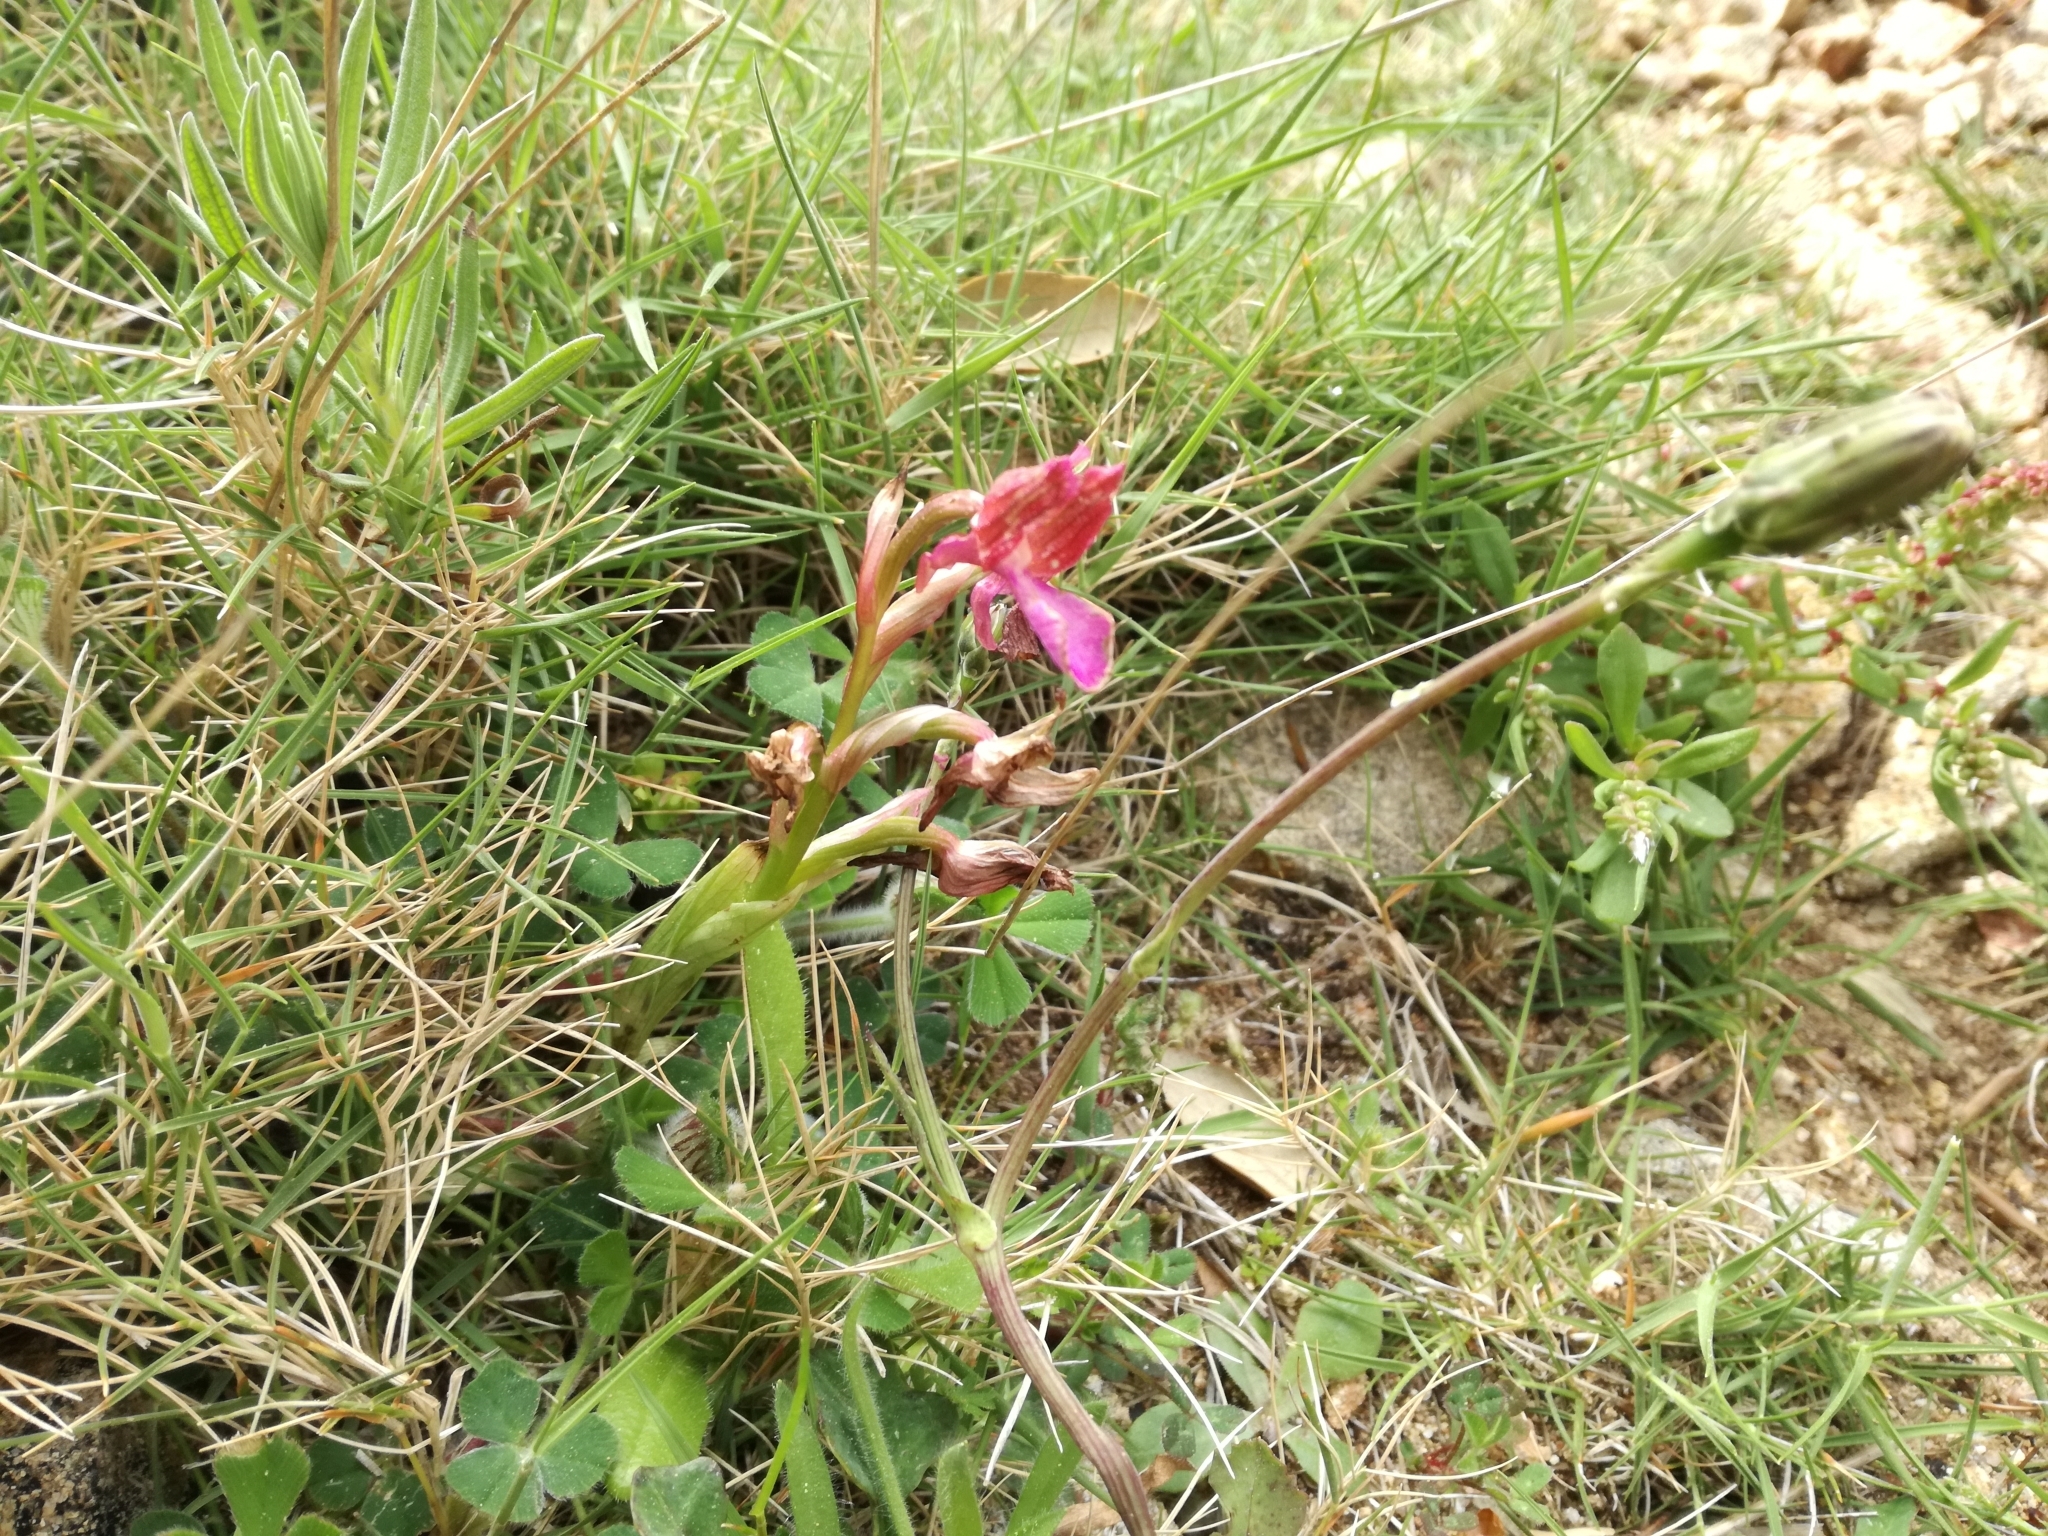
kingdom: Plantae
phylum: Tracheophyta
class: Liliopsida
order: Asparagales
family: Orchidaceae
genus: Anacamptis
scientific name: Anacamptis papilionacea
